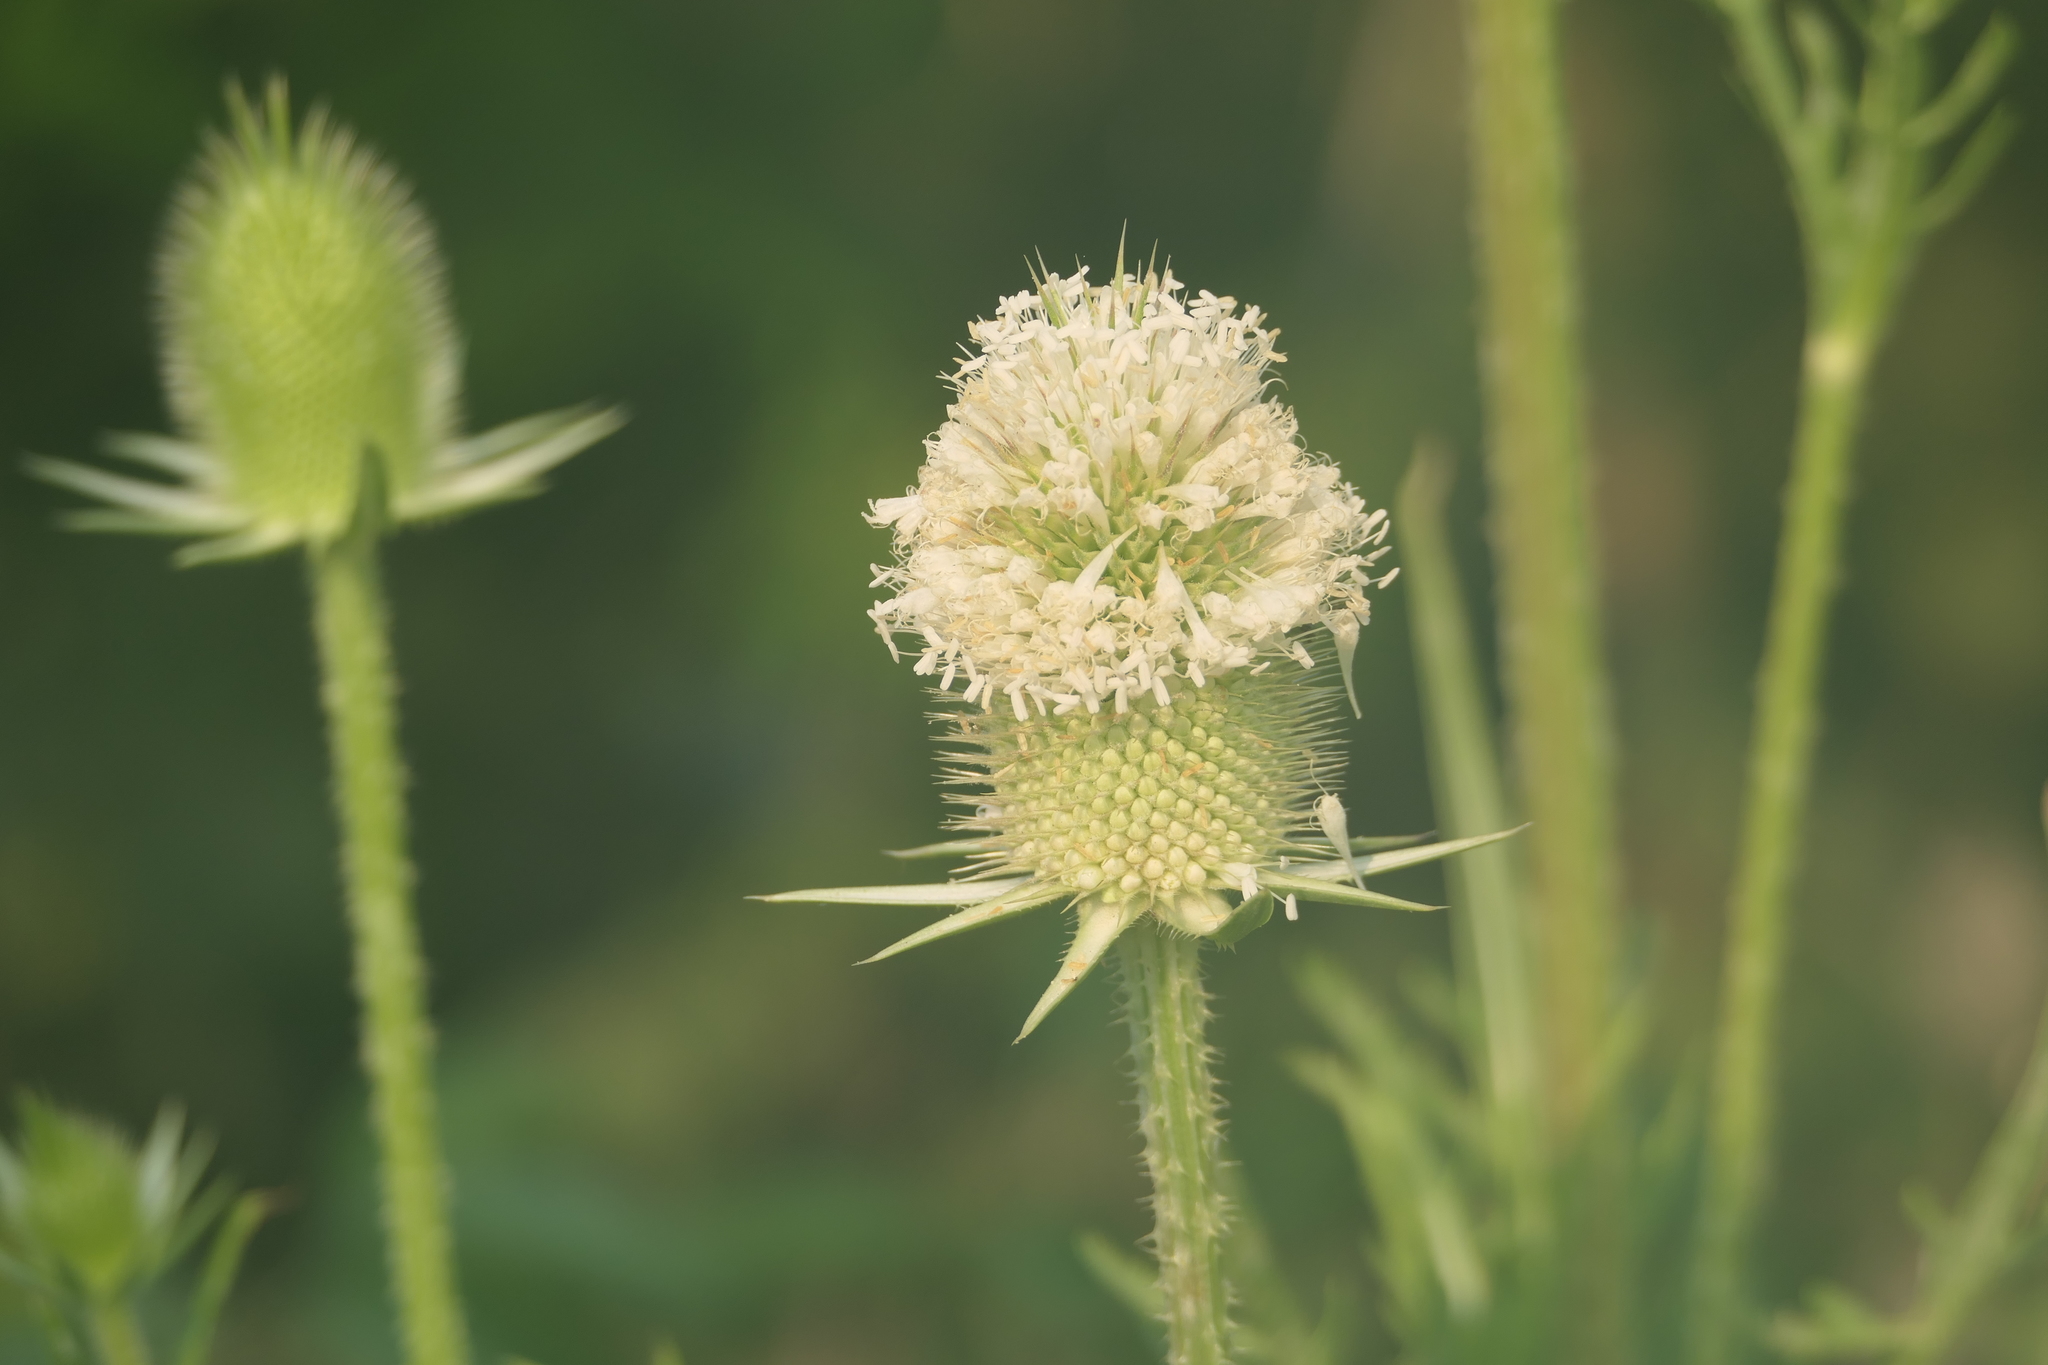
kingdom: Plantae
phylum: Tracheophyta
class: Magnoliopsida
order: Dipsacales
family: Caprifoliaceae
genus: Dipsacus
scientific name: Dipsacus laciniatus
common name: Cut-leaved teasel
